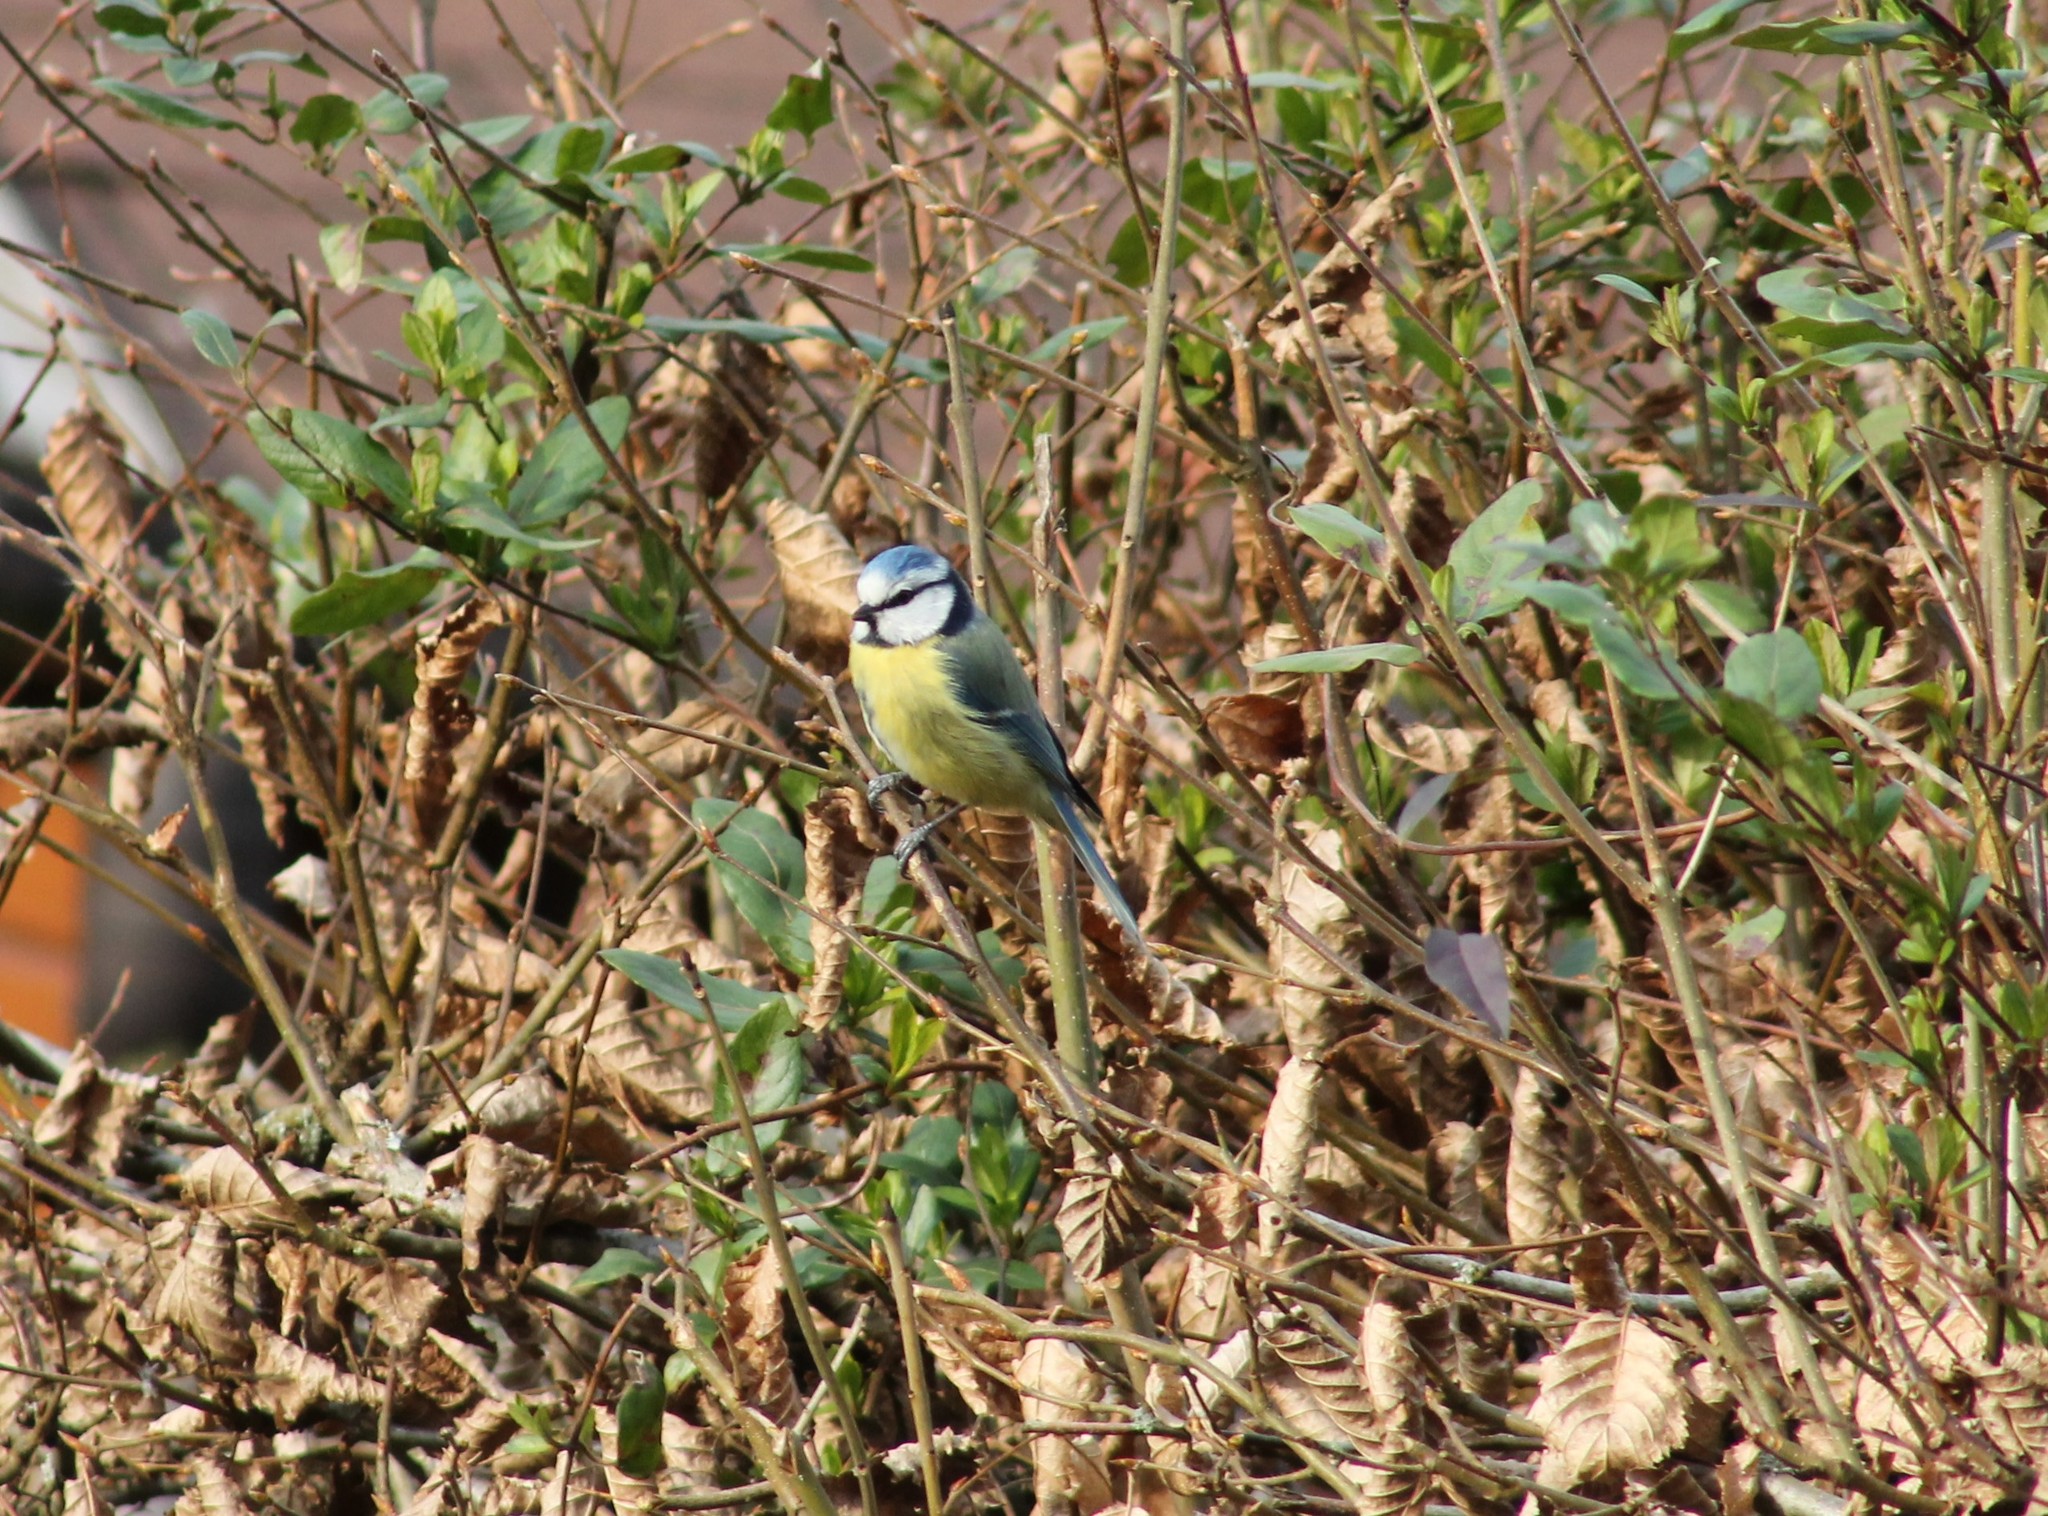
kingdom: Animalia
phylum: Chordata
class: Aves
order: Passeriformes
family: Paridae
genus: Cyanistes
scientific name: Cyanistes caeruleus
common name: Eurasian blue tit
